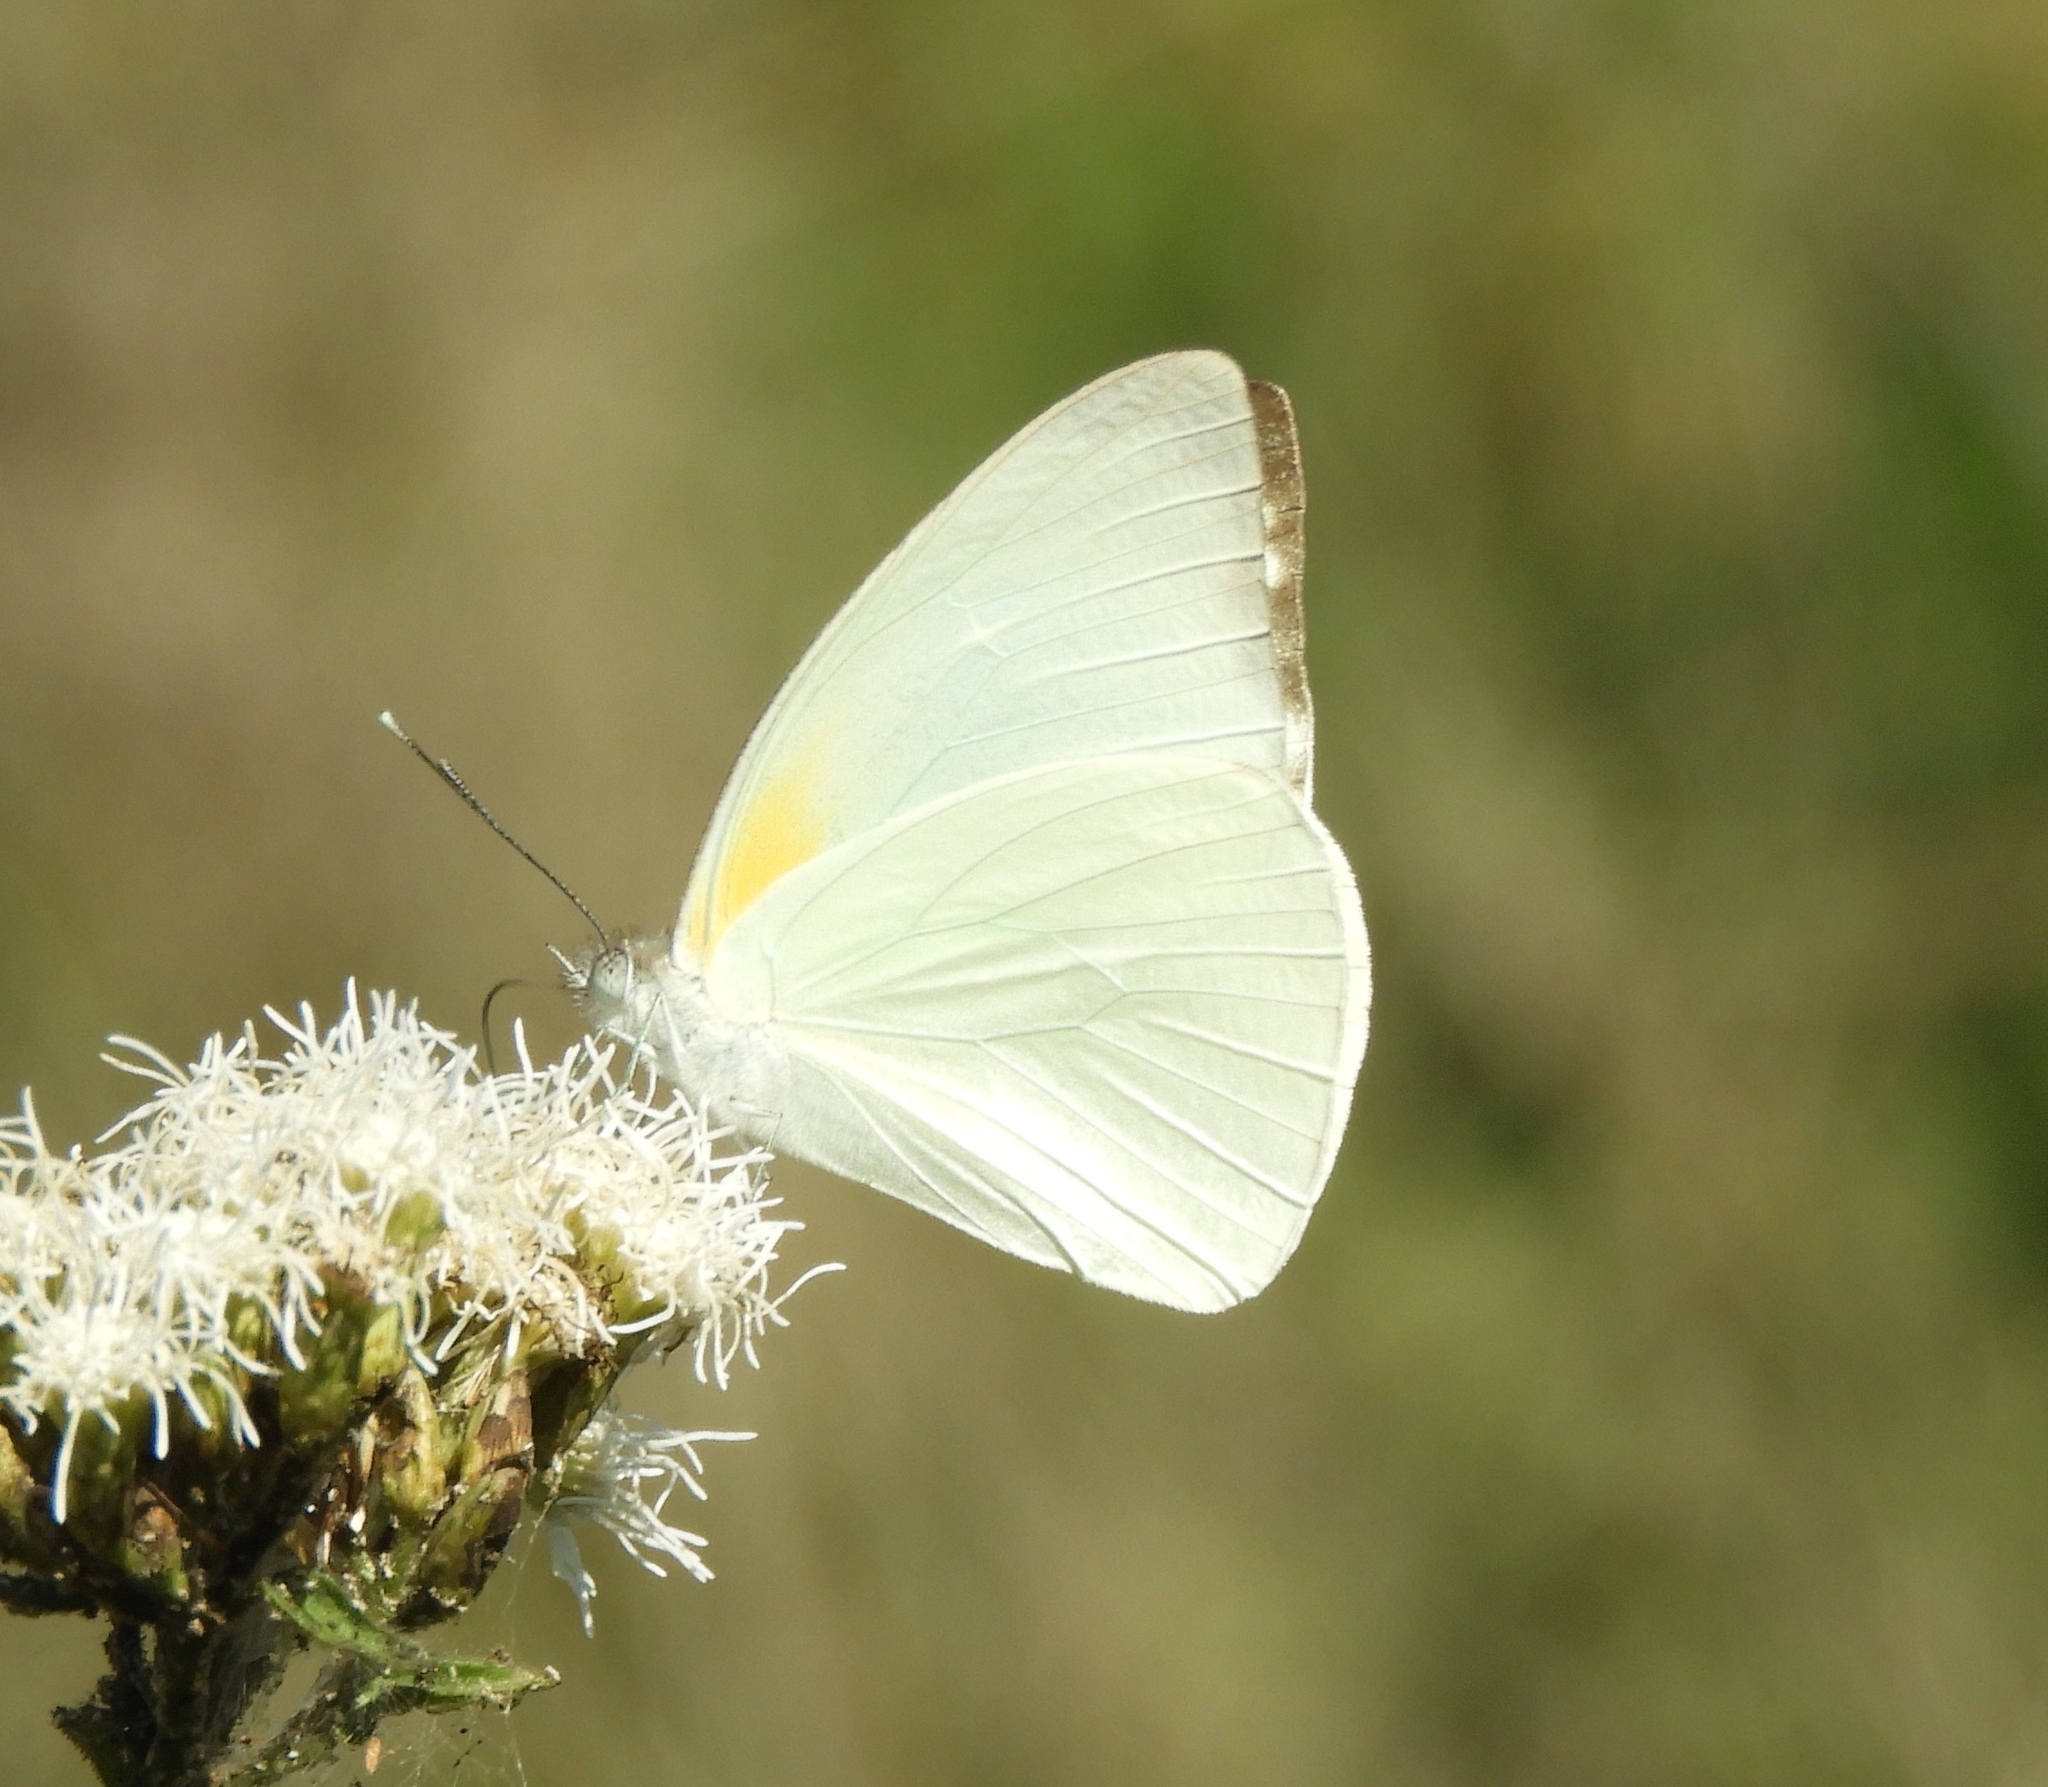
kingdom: Animalia
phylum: Arthropoda
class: Insecta
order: Lepidoptera
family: Pieridae
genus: Glutophrissa
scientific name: Glutophrissa drusilla
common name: Florida white
